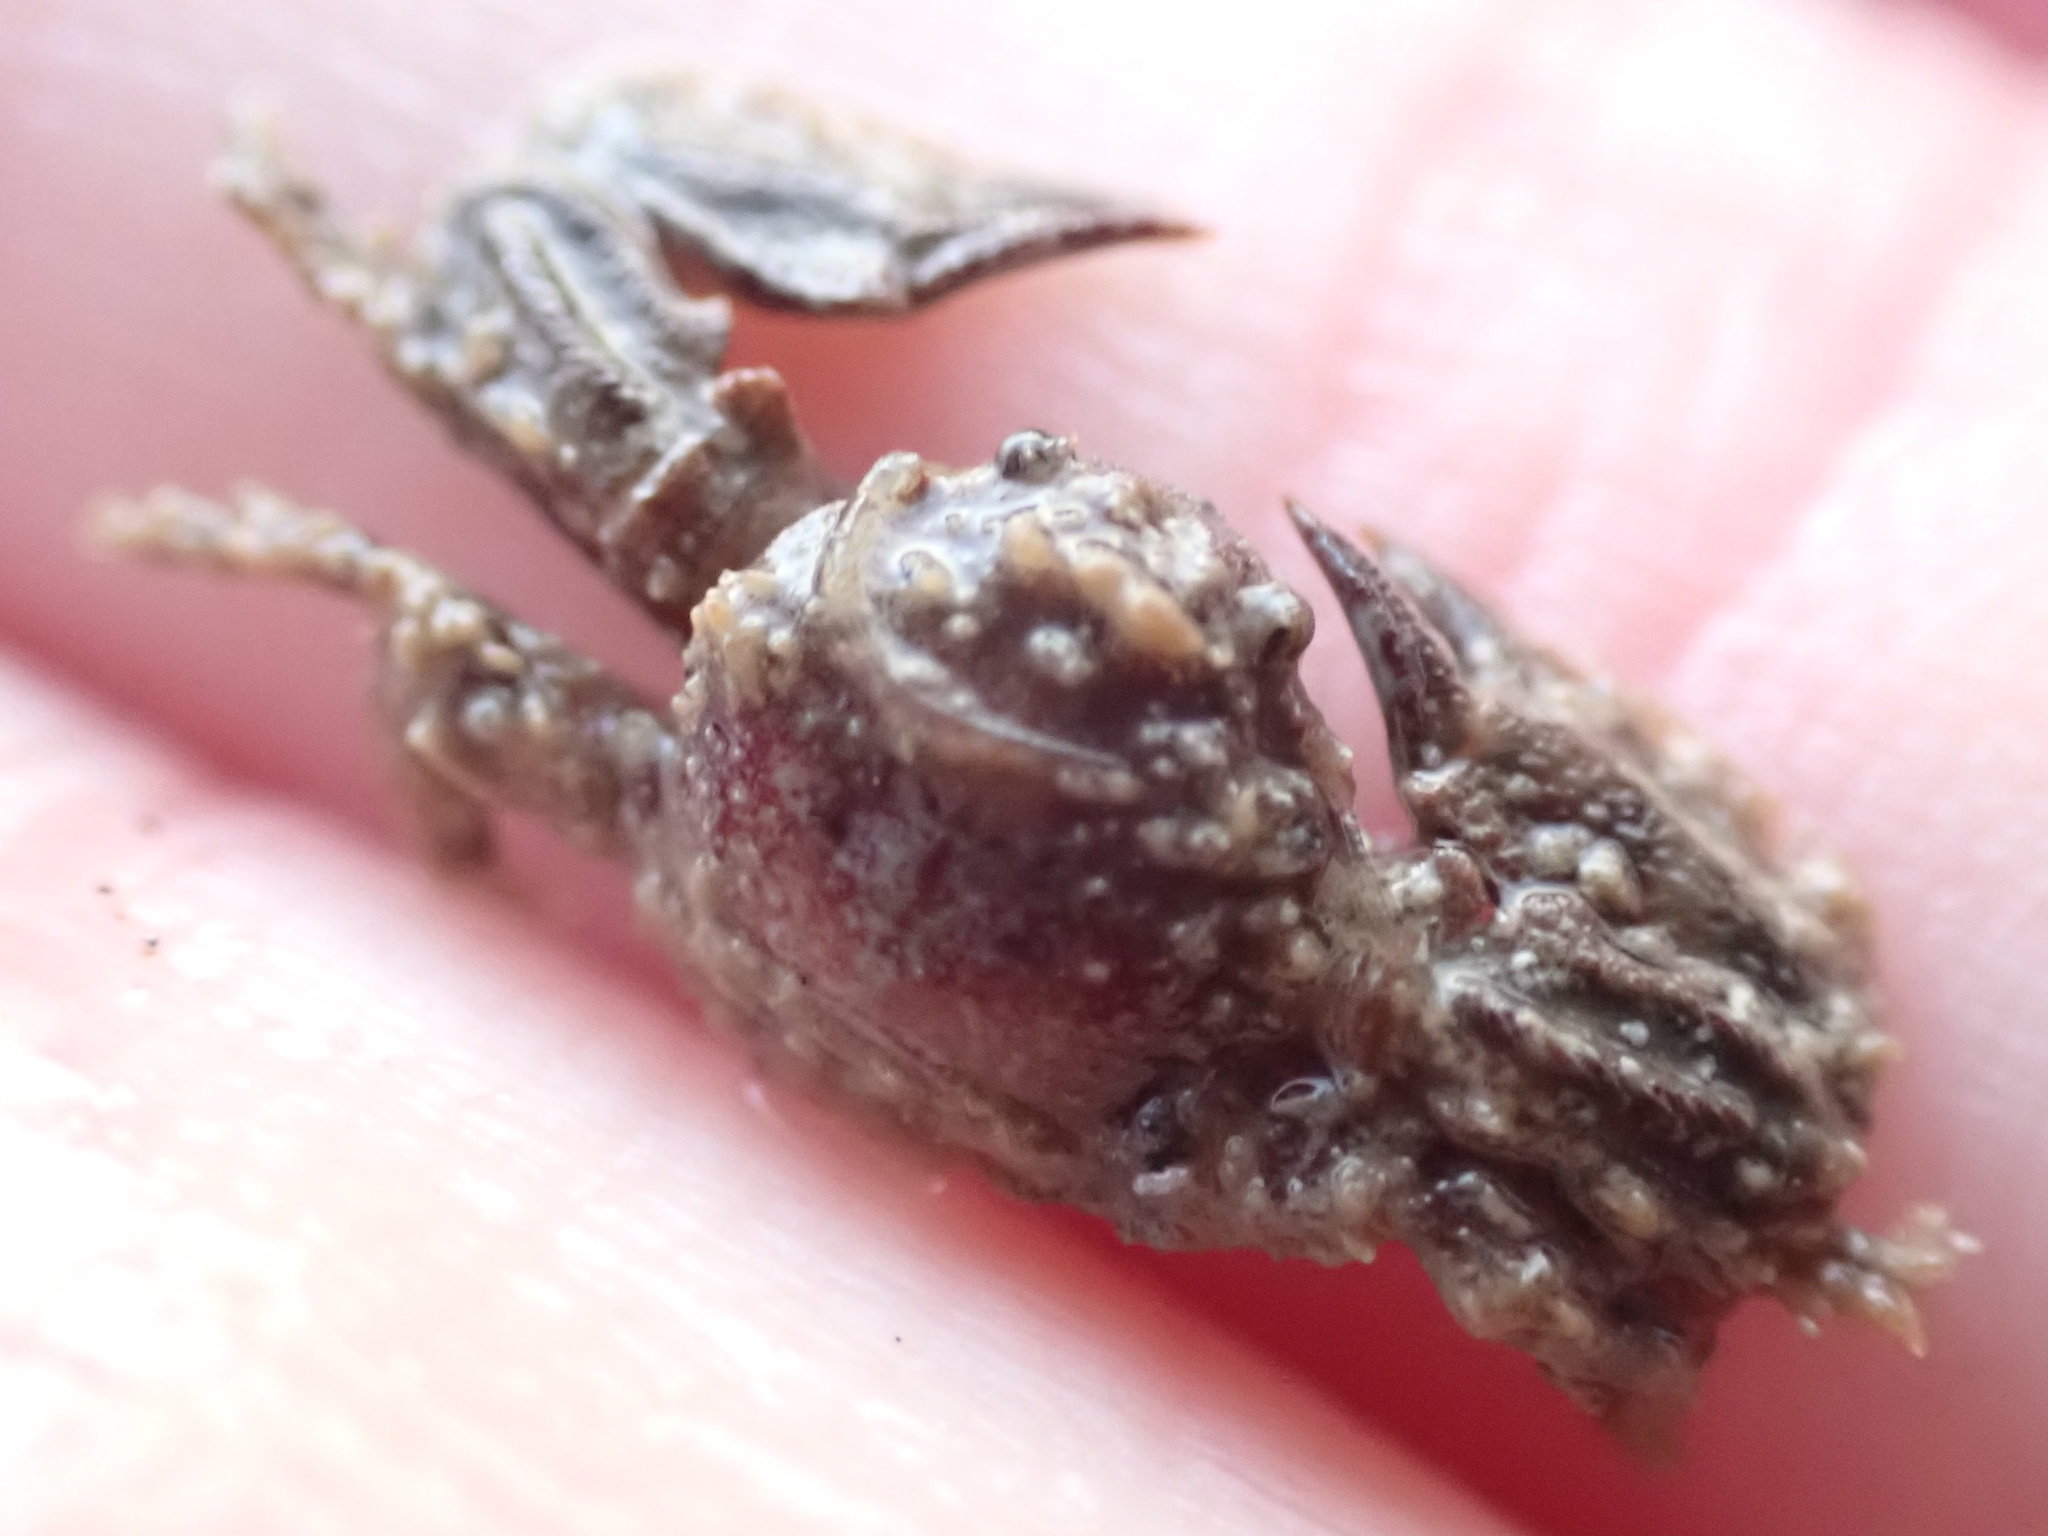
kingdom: Animalia
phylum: Arthropoda
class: Malacostraca
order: Decapoda
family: Porcellanidae
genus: Petrolisthes
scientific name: Petrolisthes novaezelandiae
